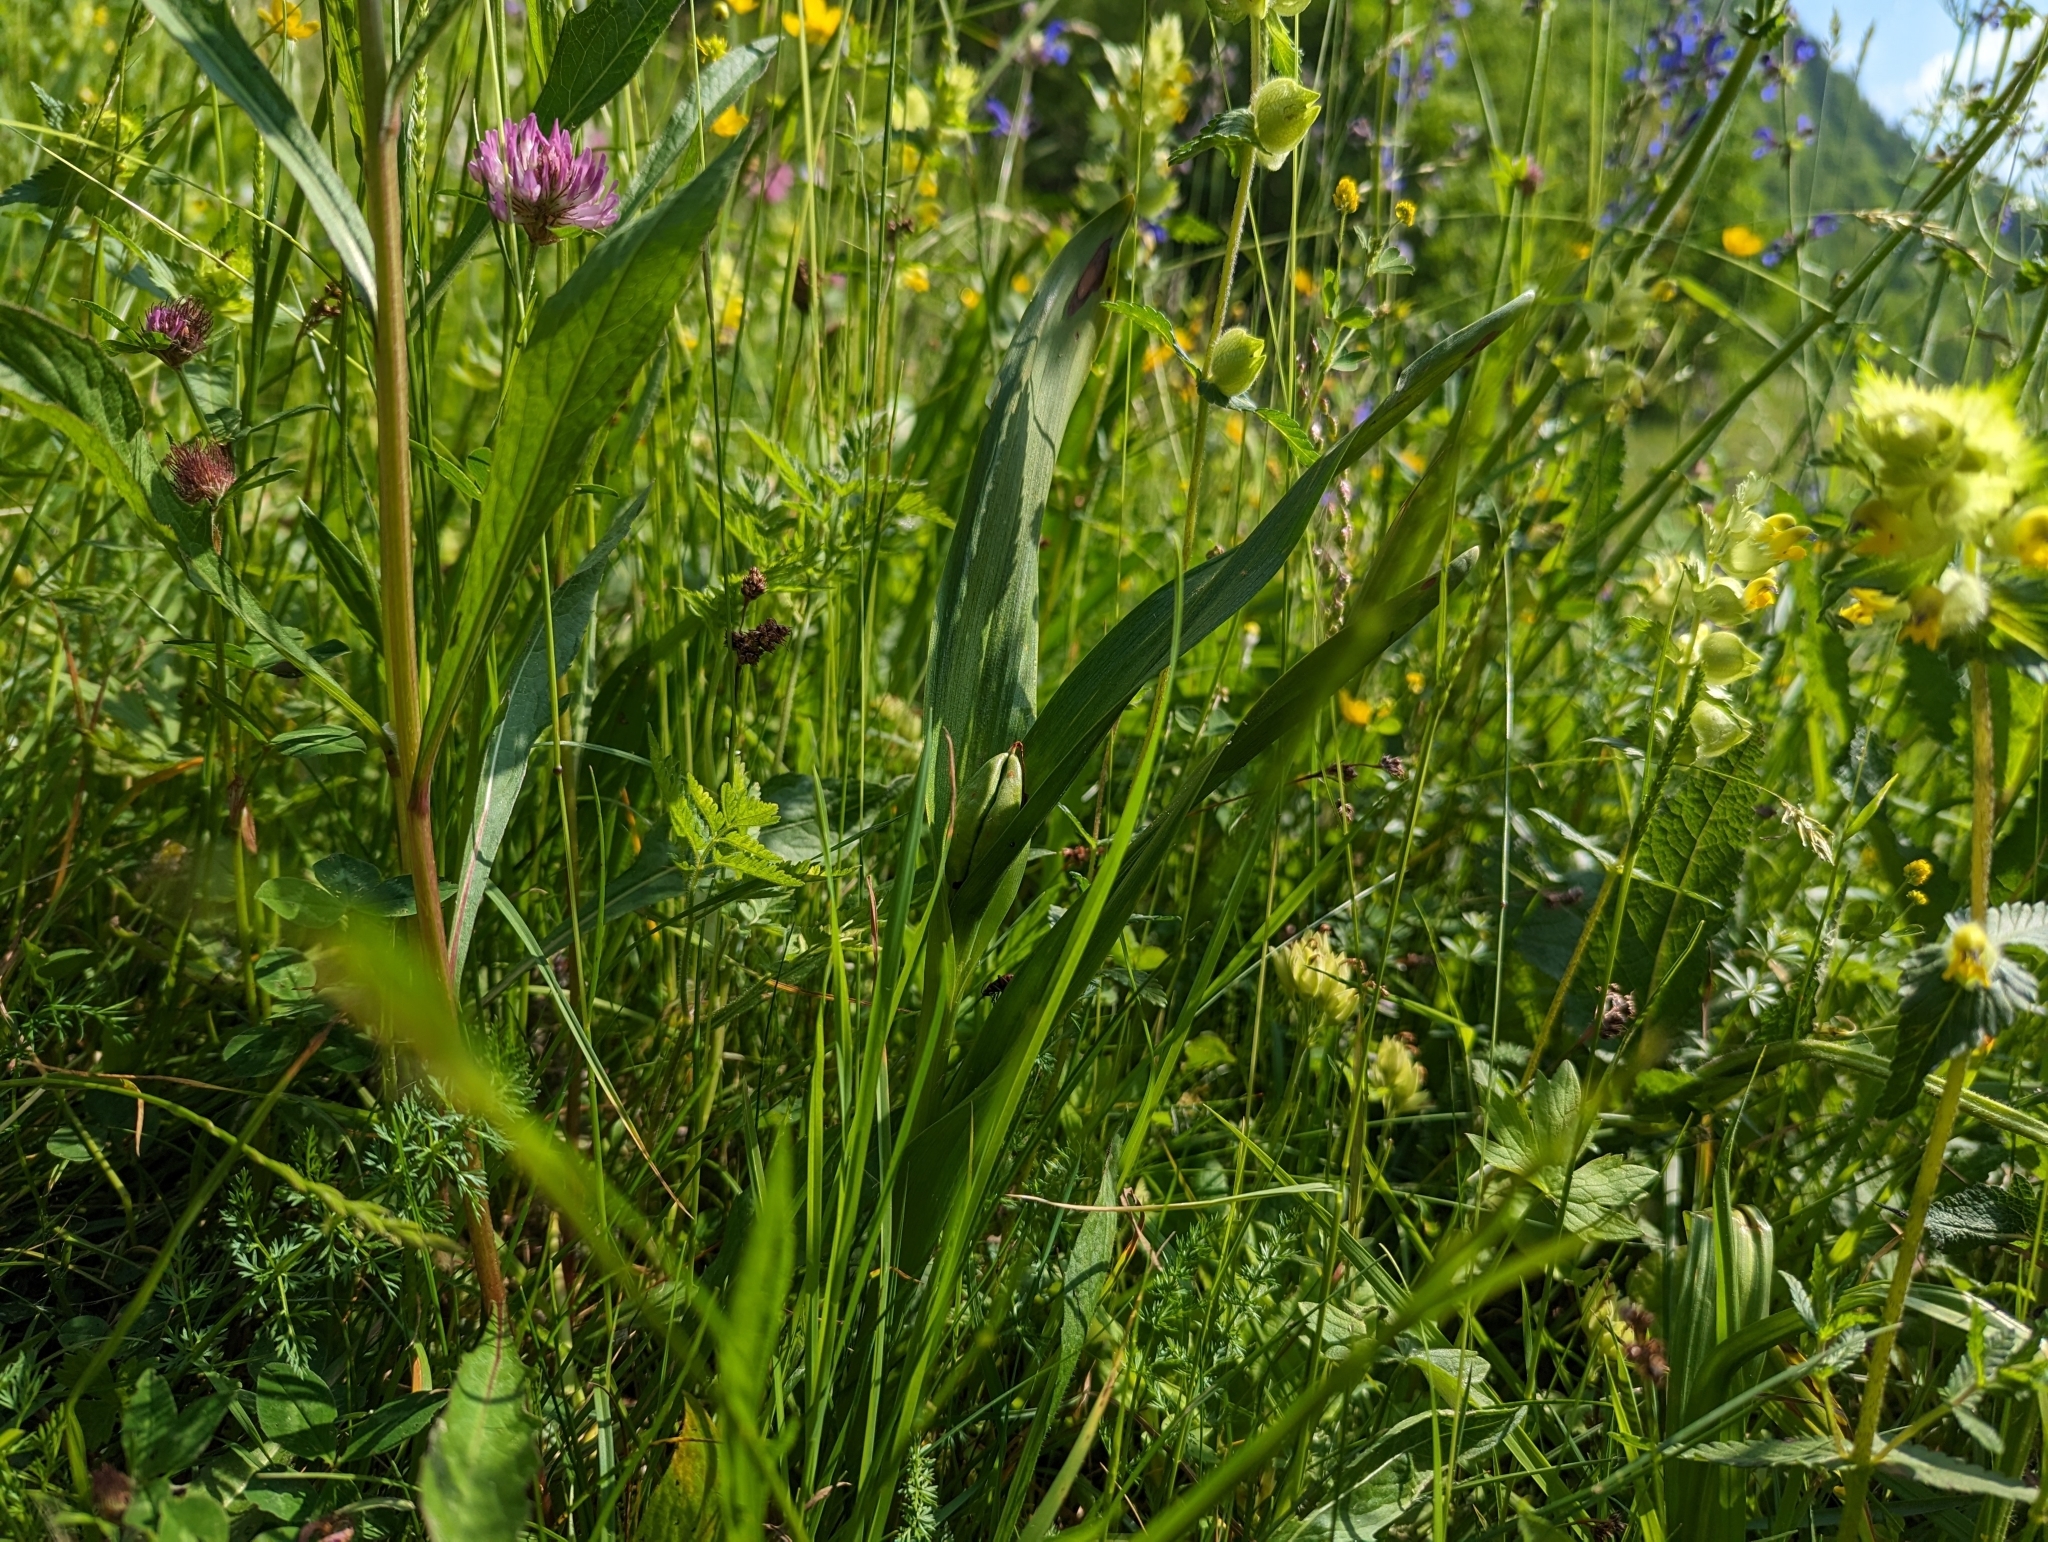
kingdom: Plantae
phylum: Tracheophyta
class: Liliopsida
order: Liliales
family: Colchicaceae
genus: Colchicum
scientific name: Colchicum autumnale
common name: Autumn crocus
